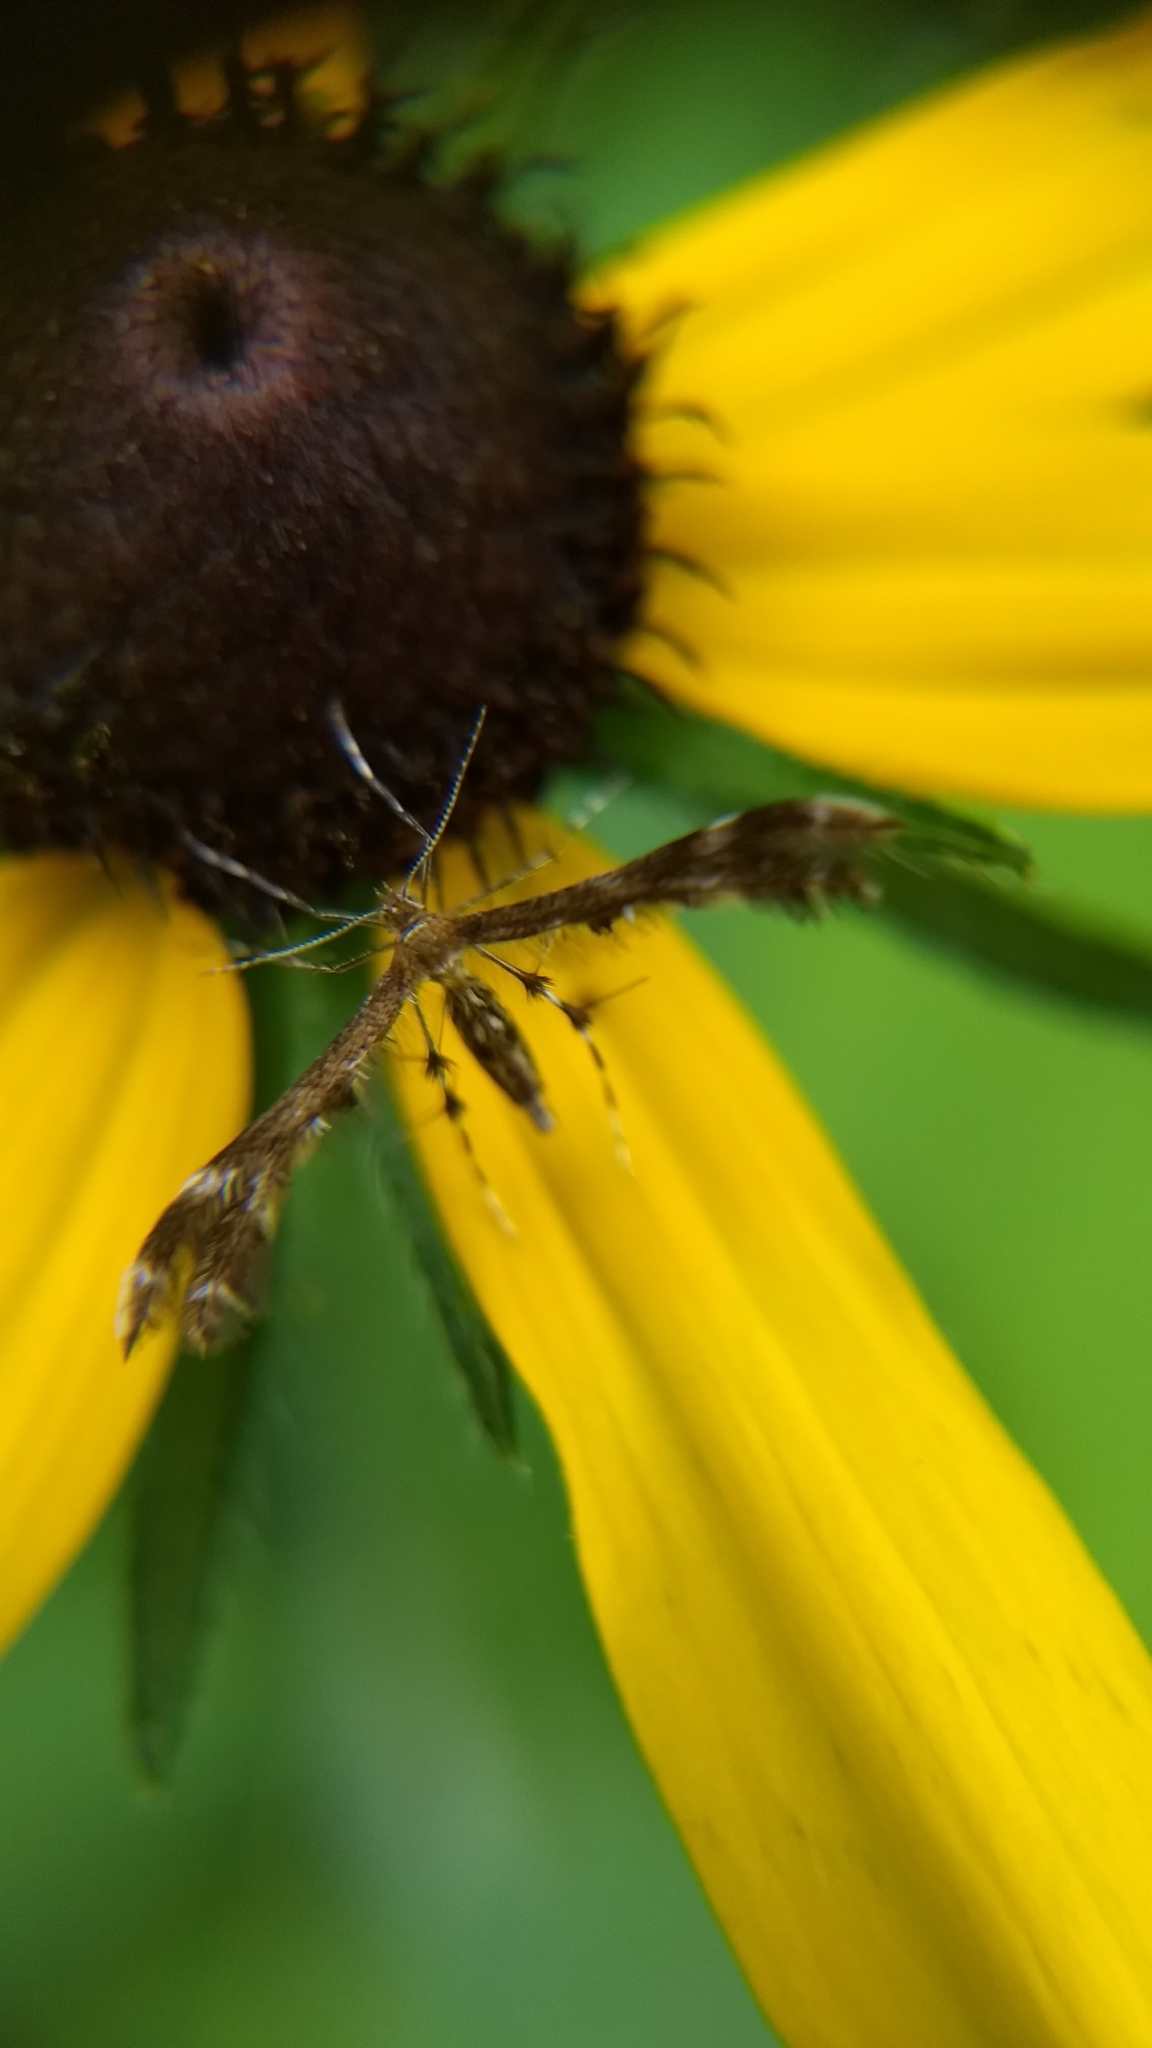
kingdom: Animalia
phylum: Arthropoda
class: Insecta
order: Lepidoptera
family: Pterophoridae
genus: Dejongia
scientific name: Dejongia lobidactylus
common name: Lobed plume moth
